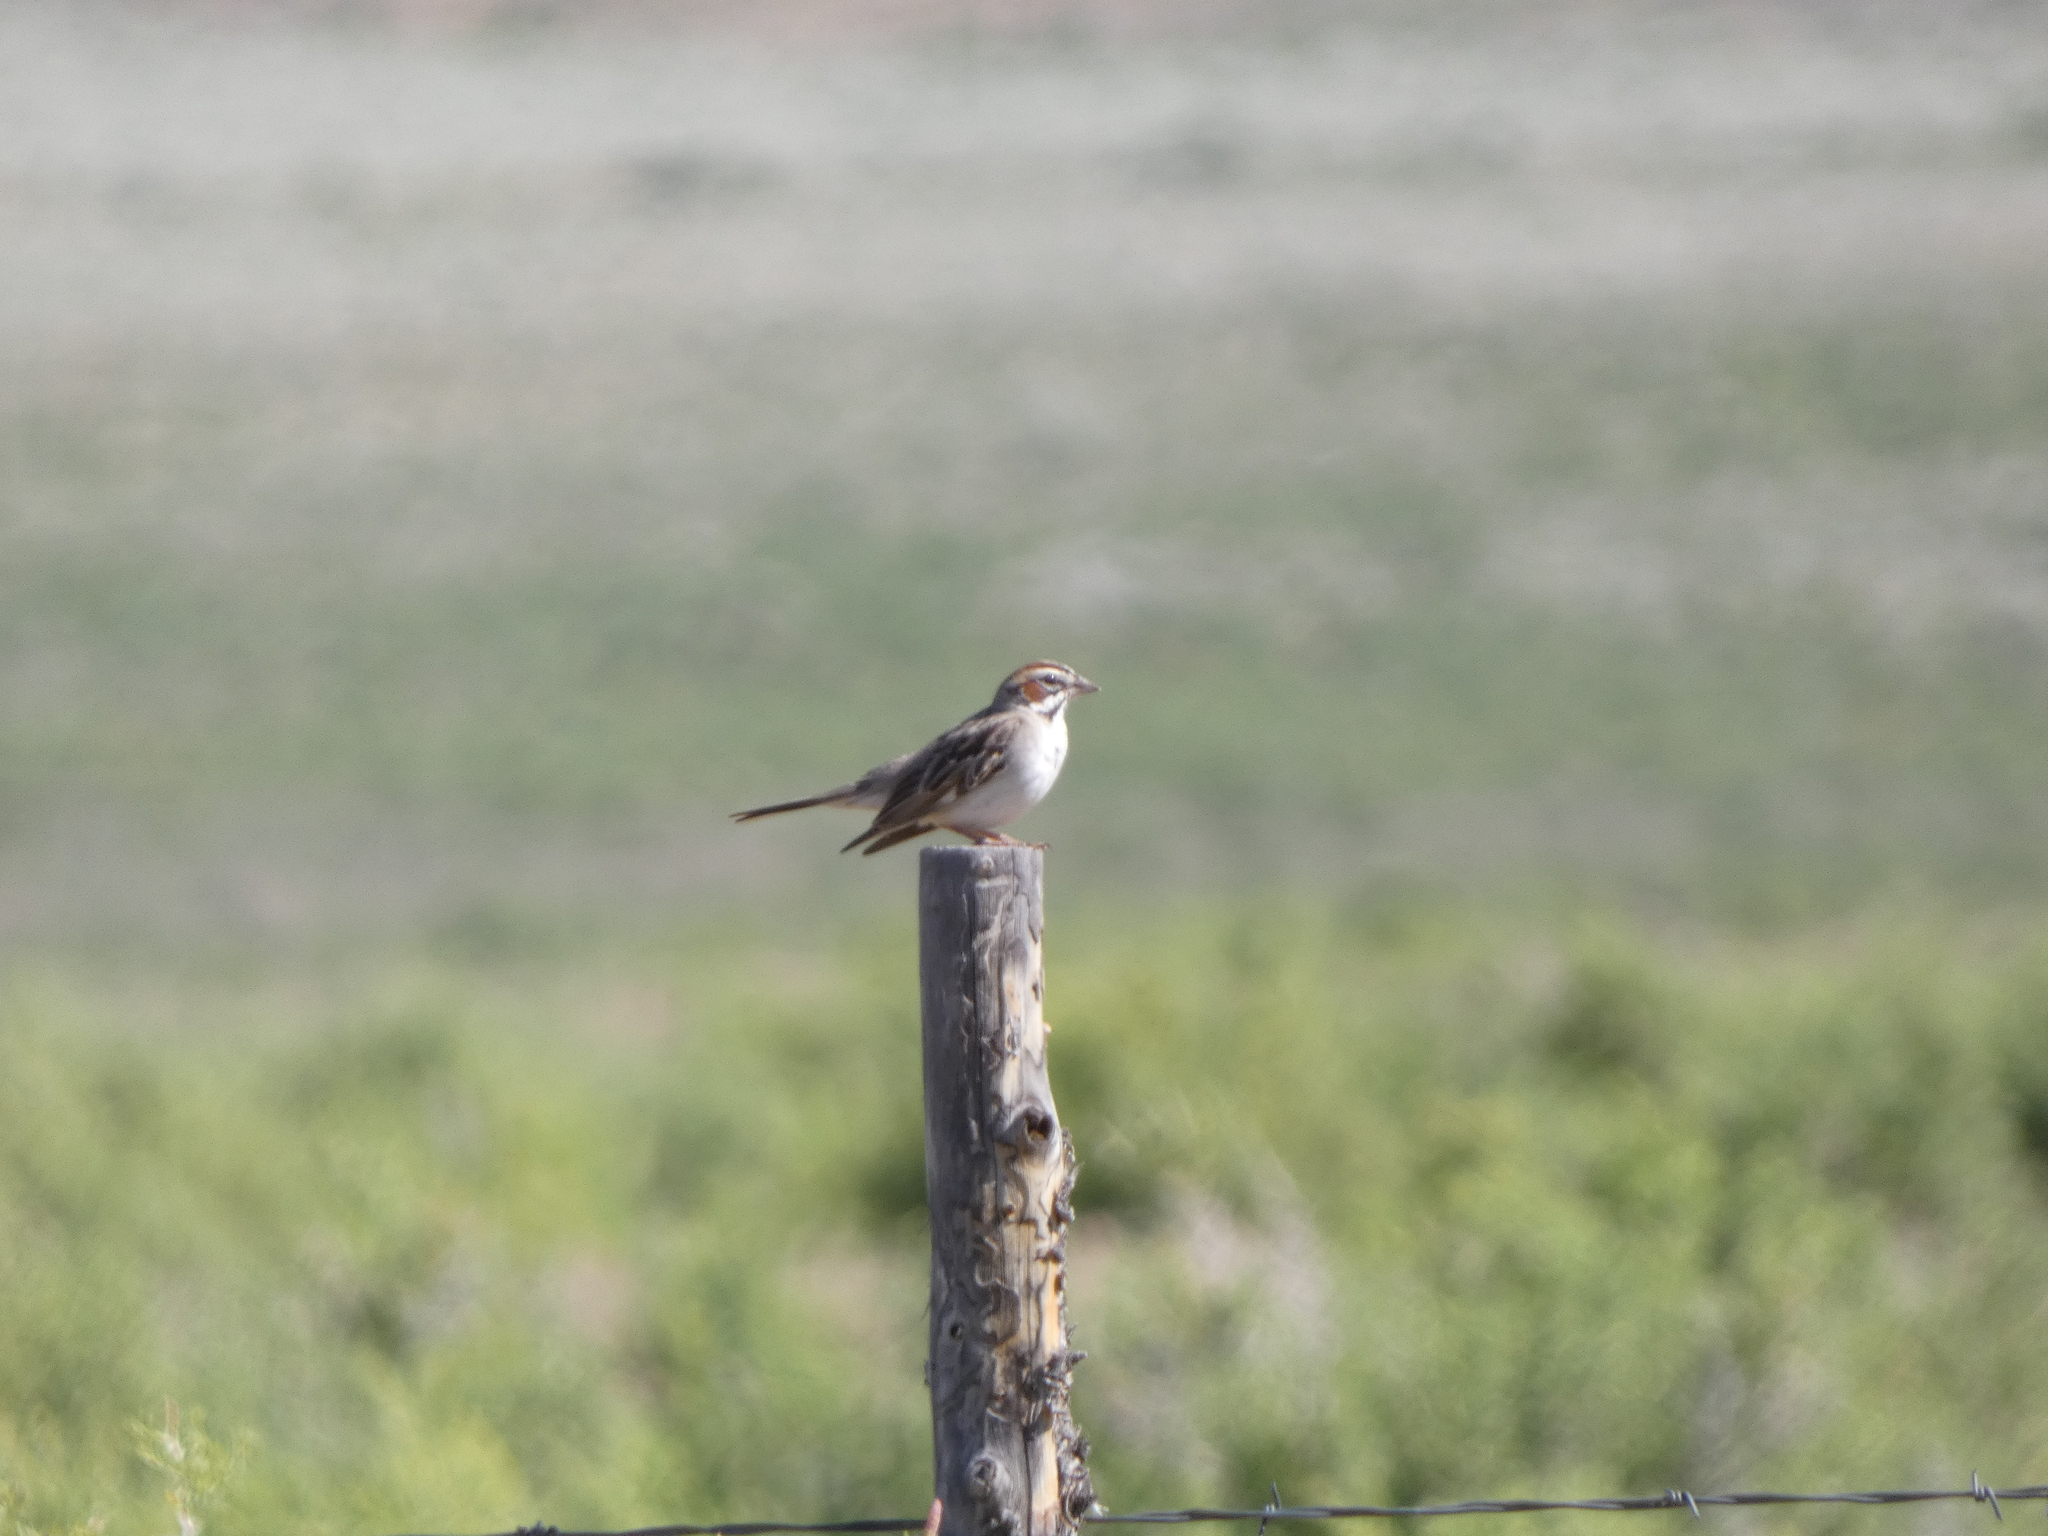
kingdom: Animalia
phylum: Chordata
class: Aves
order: Passeriformes
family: Passerellidae
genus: Chondestes
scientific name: Chondestes grammacus
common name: Lark sparrow
